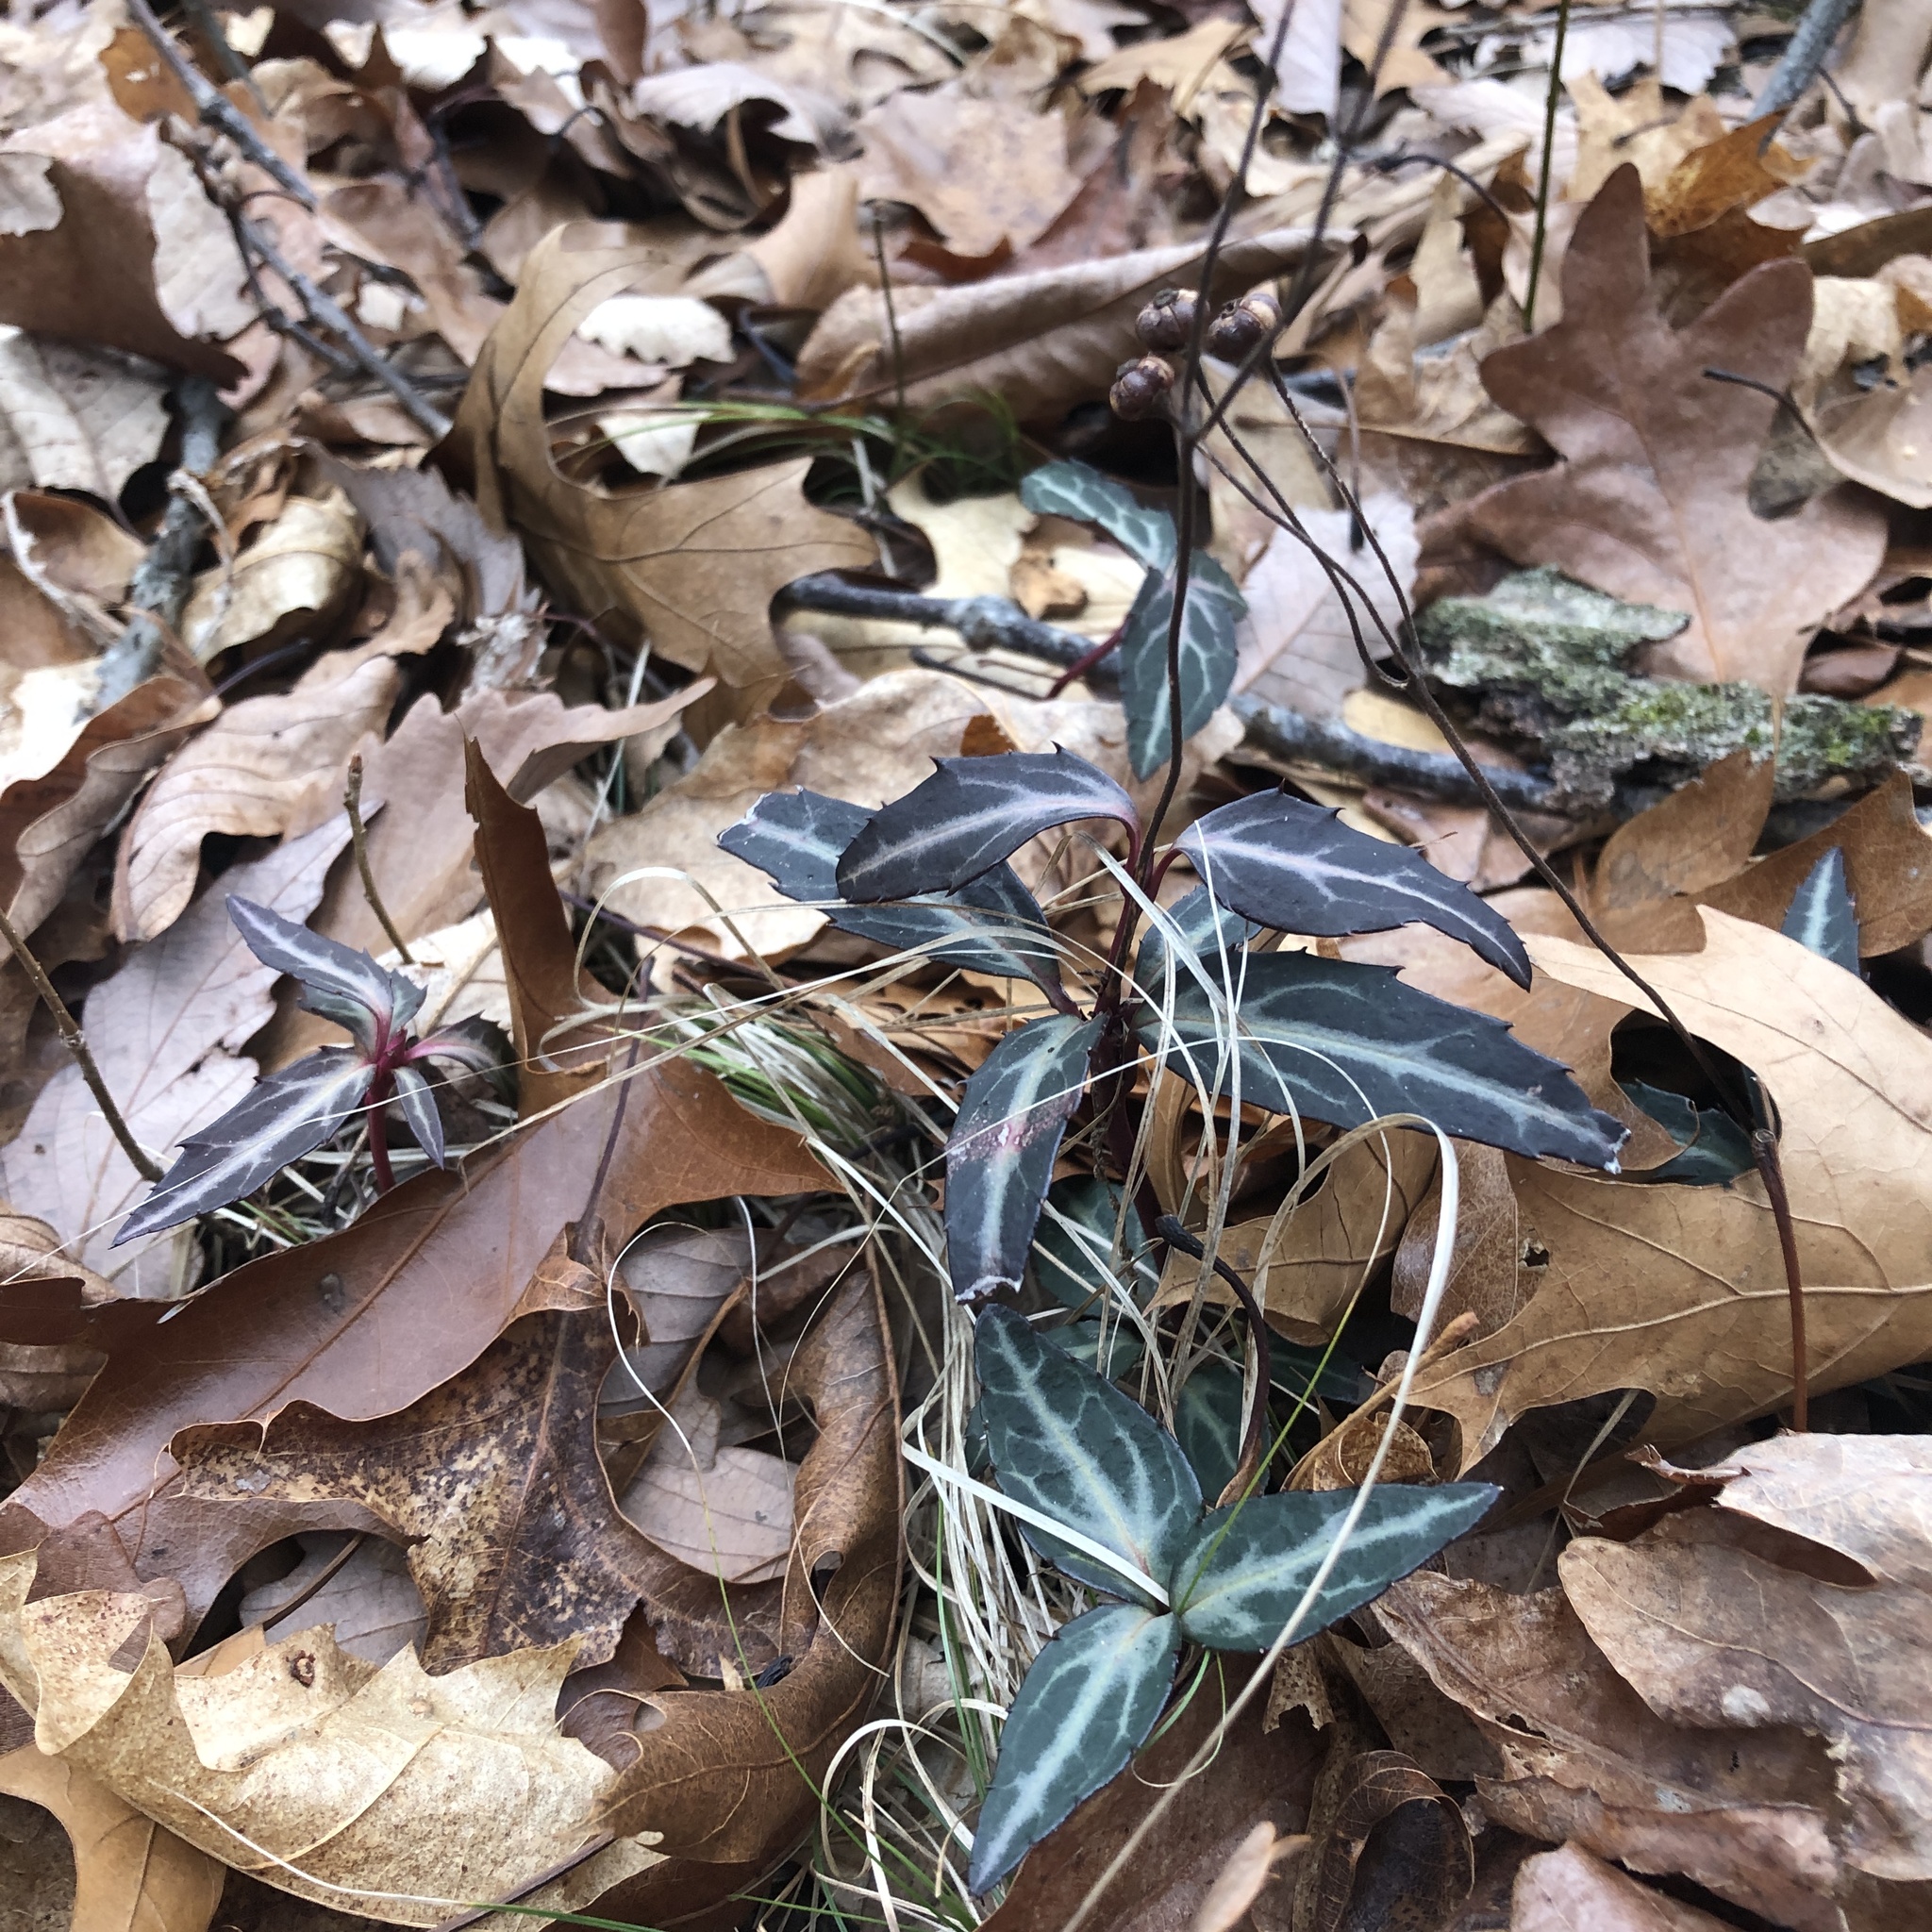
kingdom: Plantae
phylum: Tracheophyta
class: Magnoliopsida
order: Ericales
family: Ericaceae
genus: Chimaphila
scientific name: Chimaphila maculata
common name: Spotted pipsissewa
